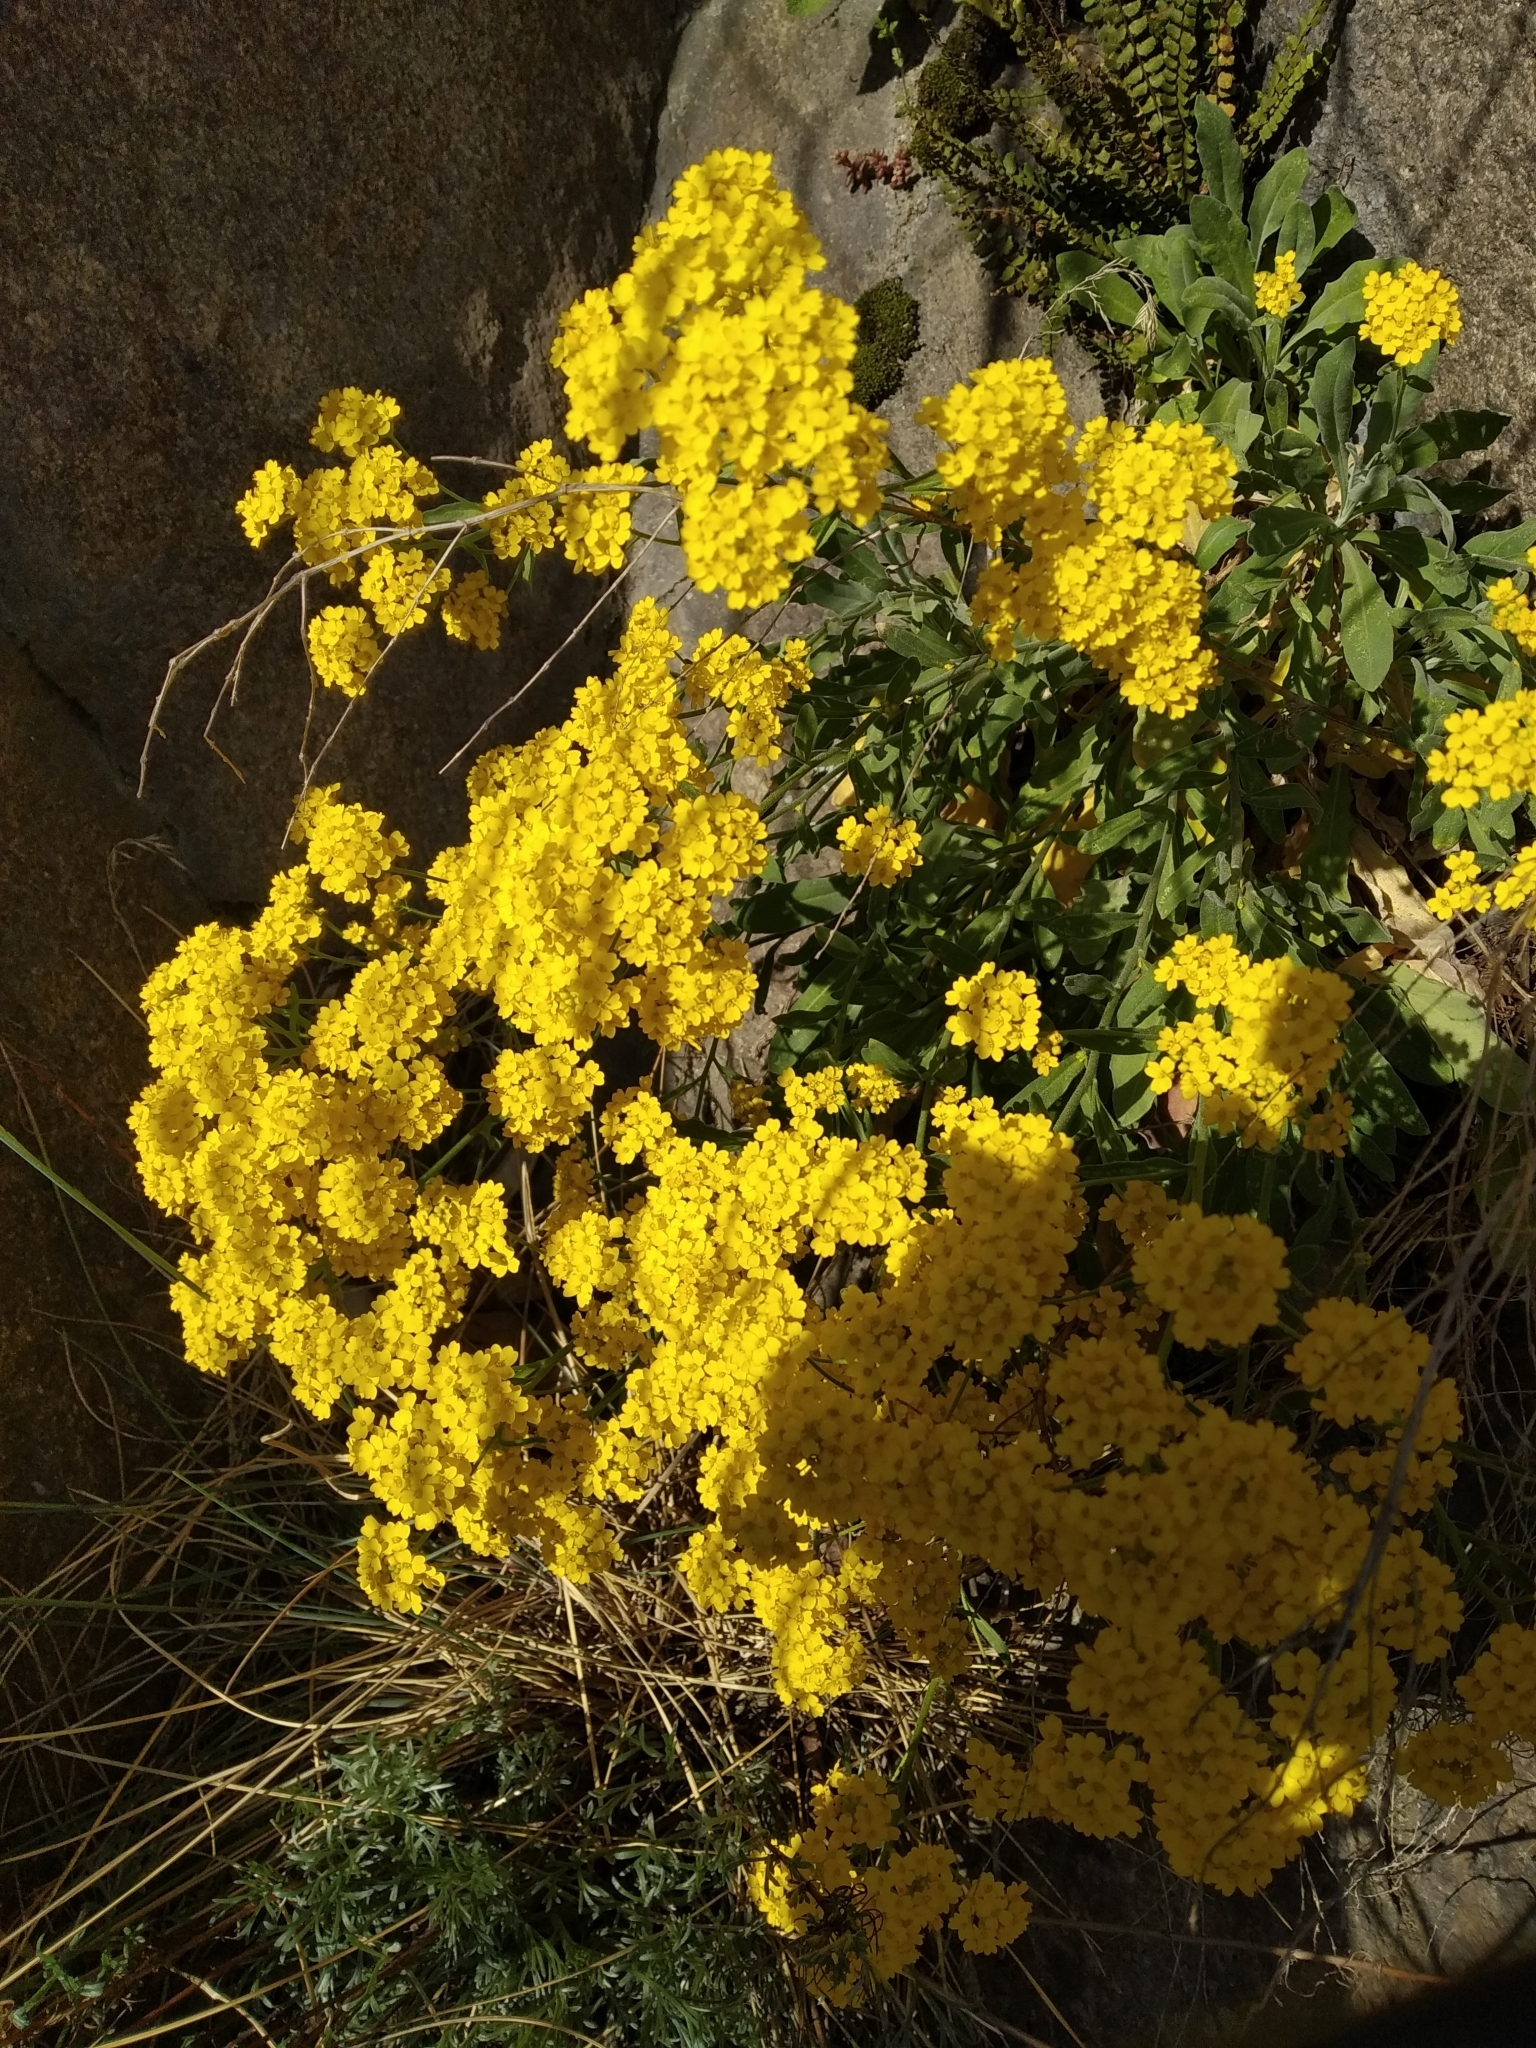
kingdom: Plantae
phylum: Tracheophyta
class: Magnoliopsida
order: Brassicales
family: Brassicaceae
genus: Aurinia
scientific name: Aurinia saxatilis
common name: Golden-tuft alyssum
